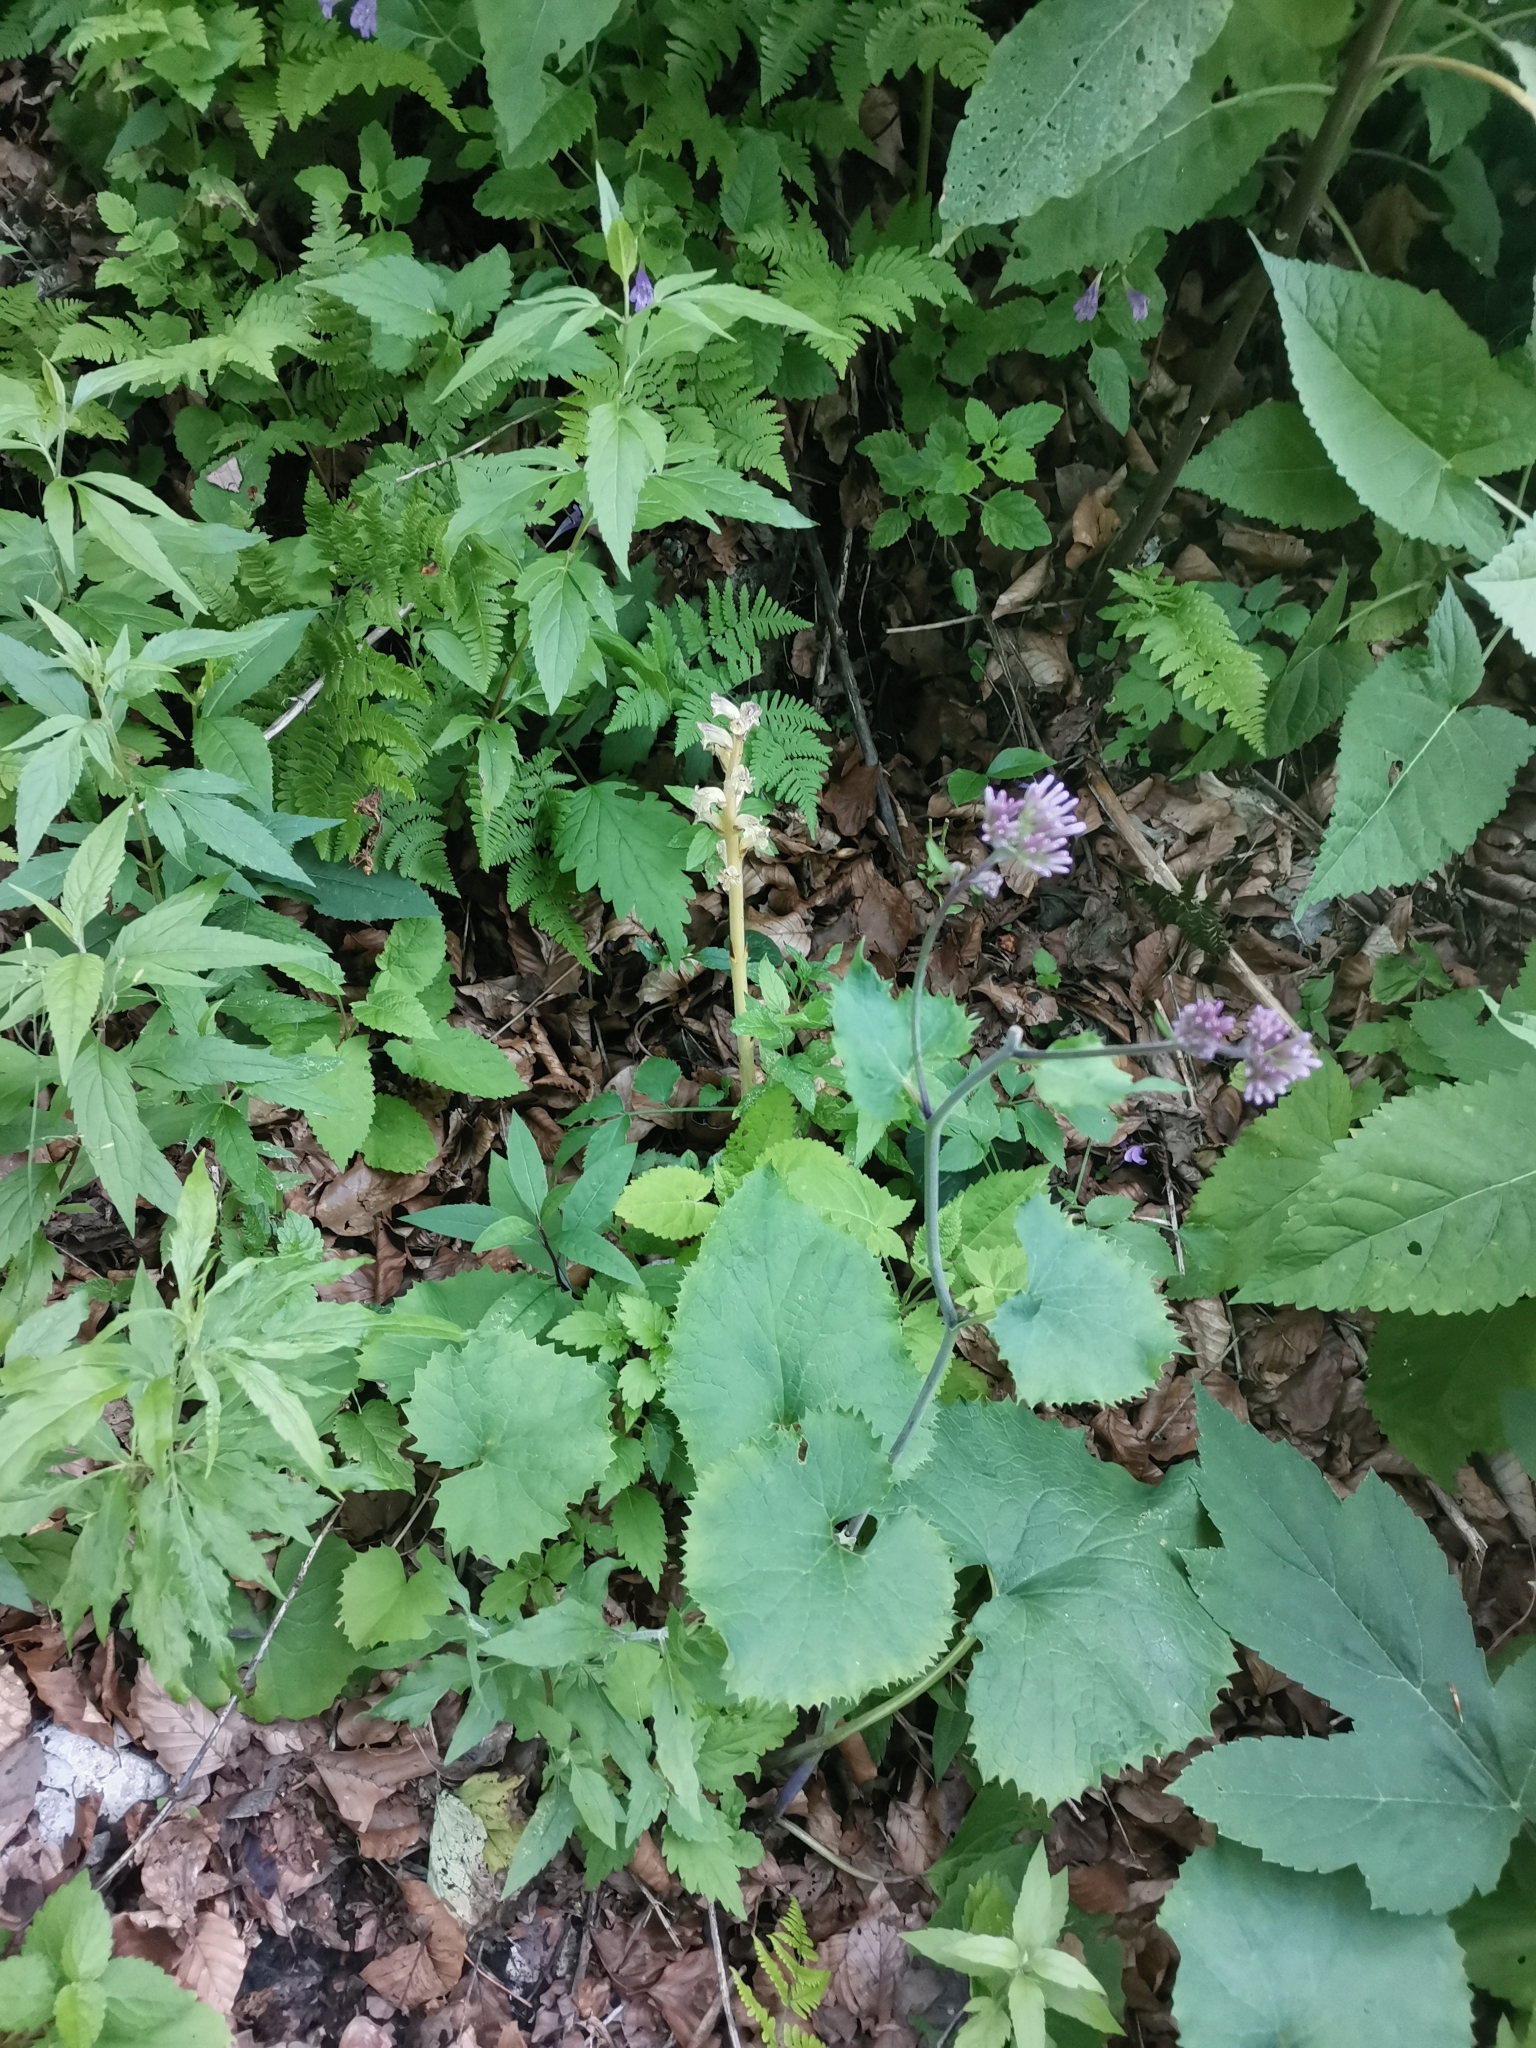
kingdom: Plantae
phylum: Tracheophyta
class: Magnoliopsida
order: Lamiales
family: Orobanchaceae
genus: Orobanche
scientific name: Orobanche reticulata
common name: Thistle broomrape
